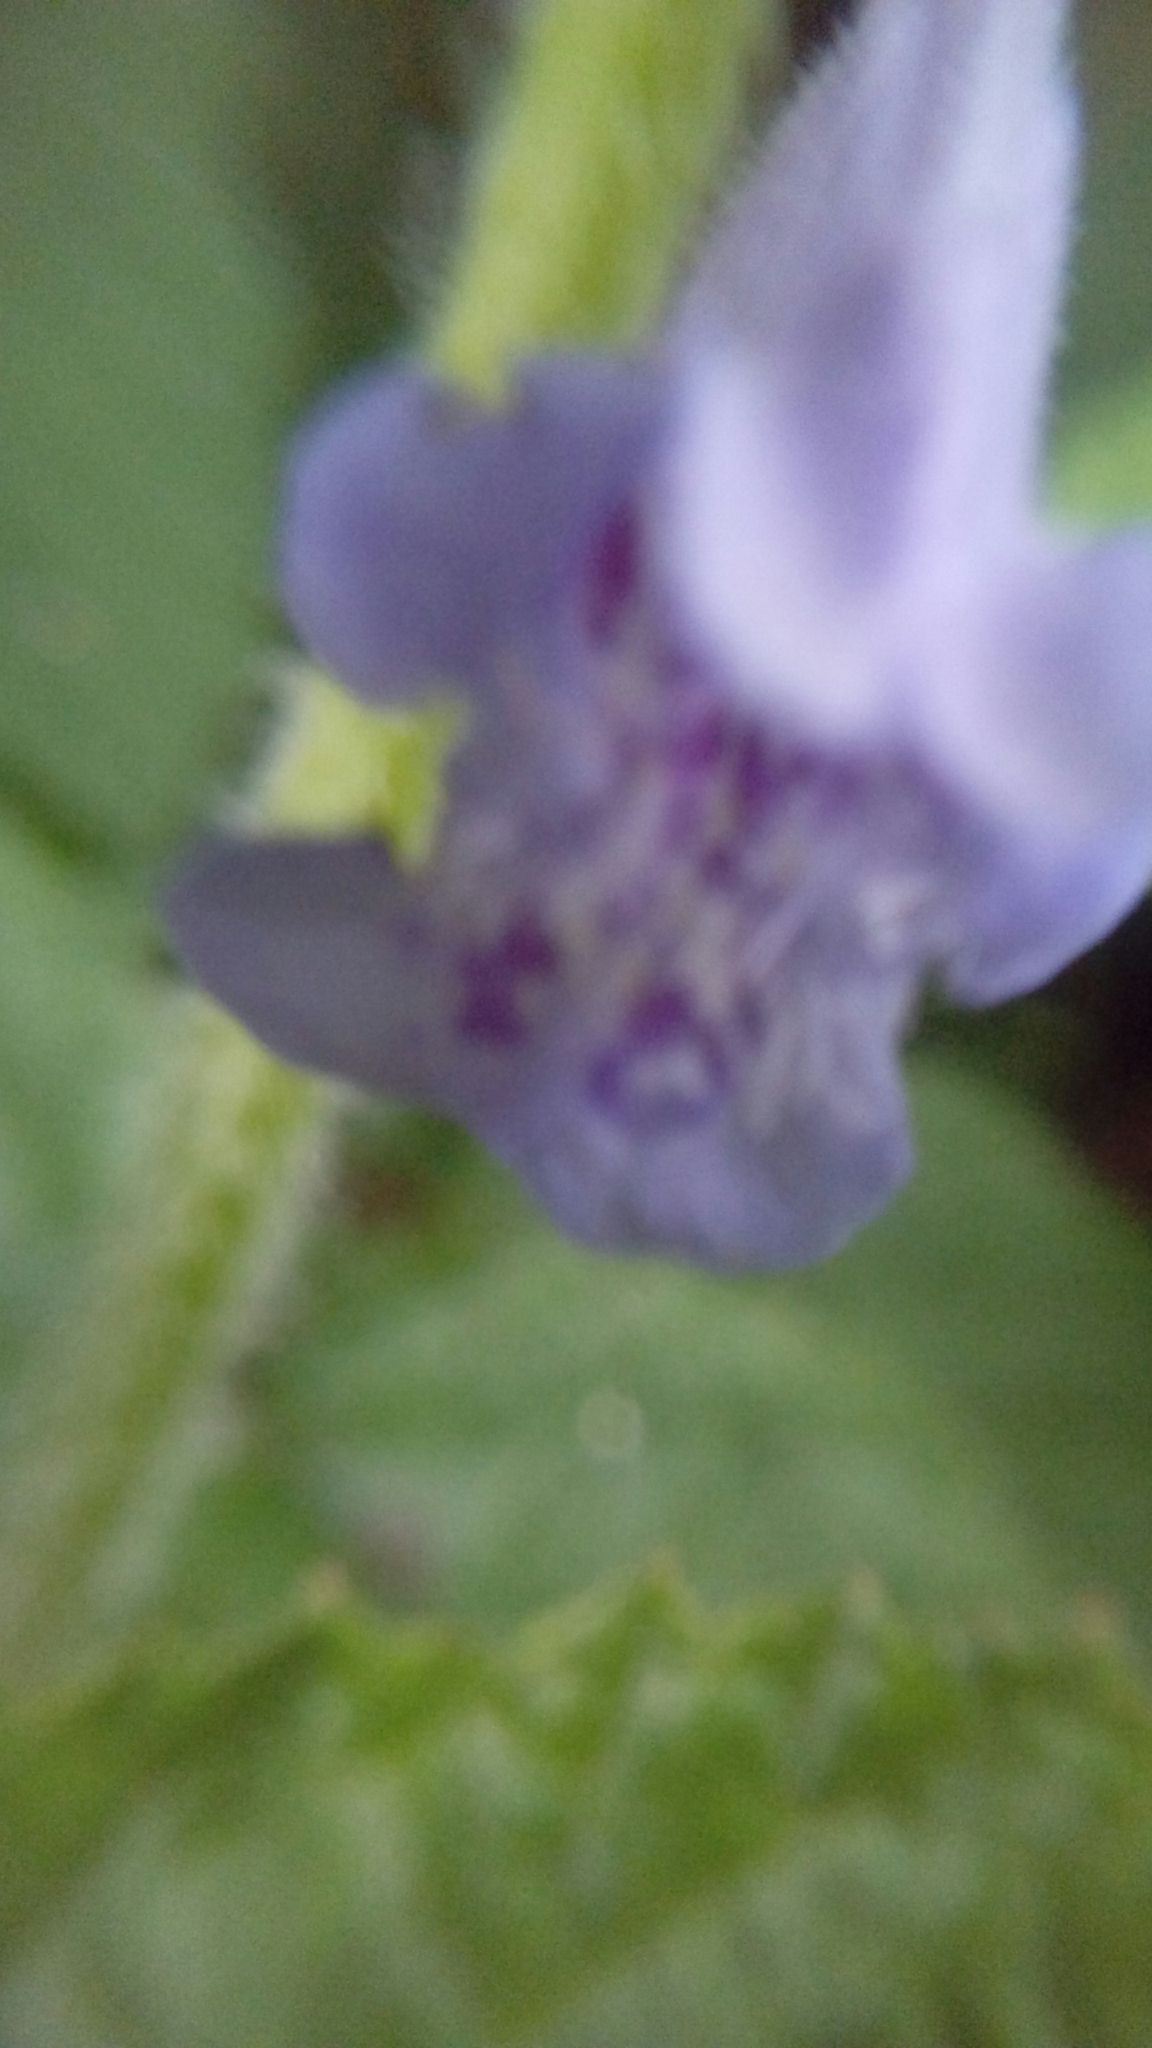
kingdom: Plantae
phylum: Tracheophyta
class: Magnoliopsida
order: Lamiales
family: Lamiaceae
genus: Glechoma
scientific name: Glechoma hederacea
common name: Ground ivy
